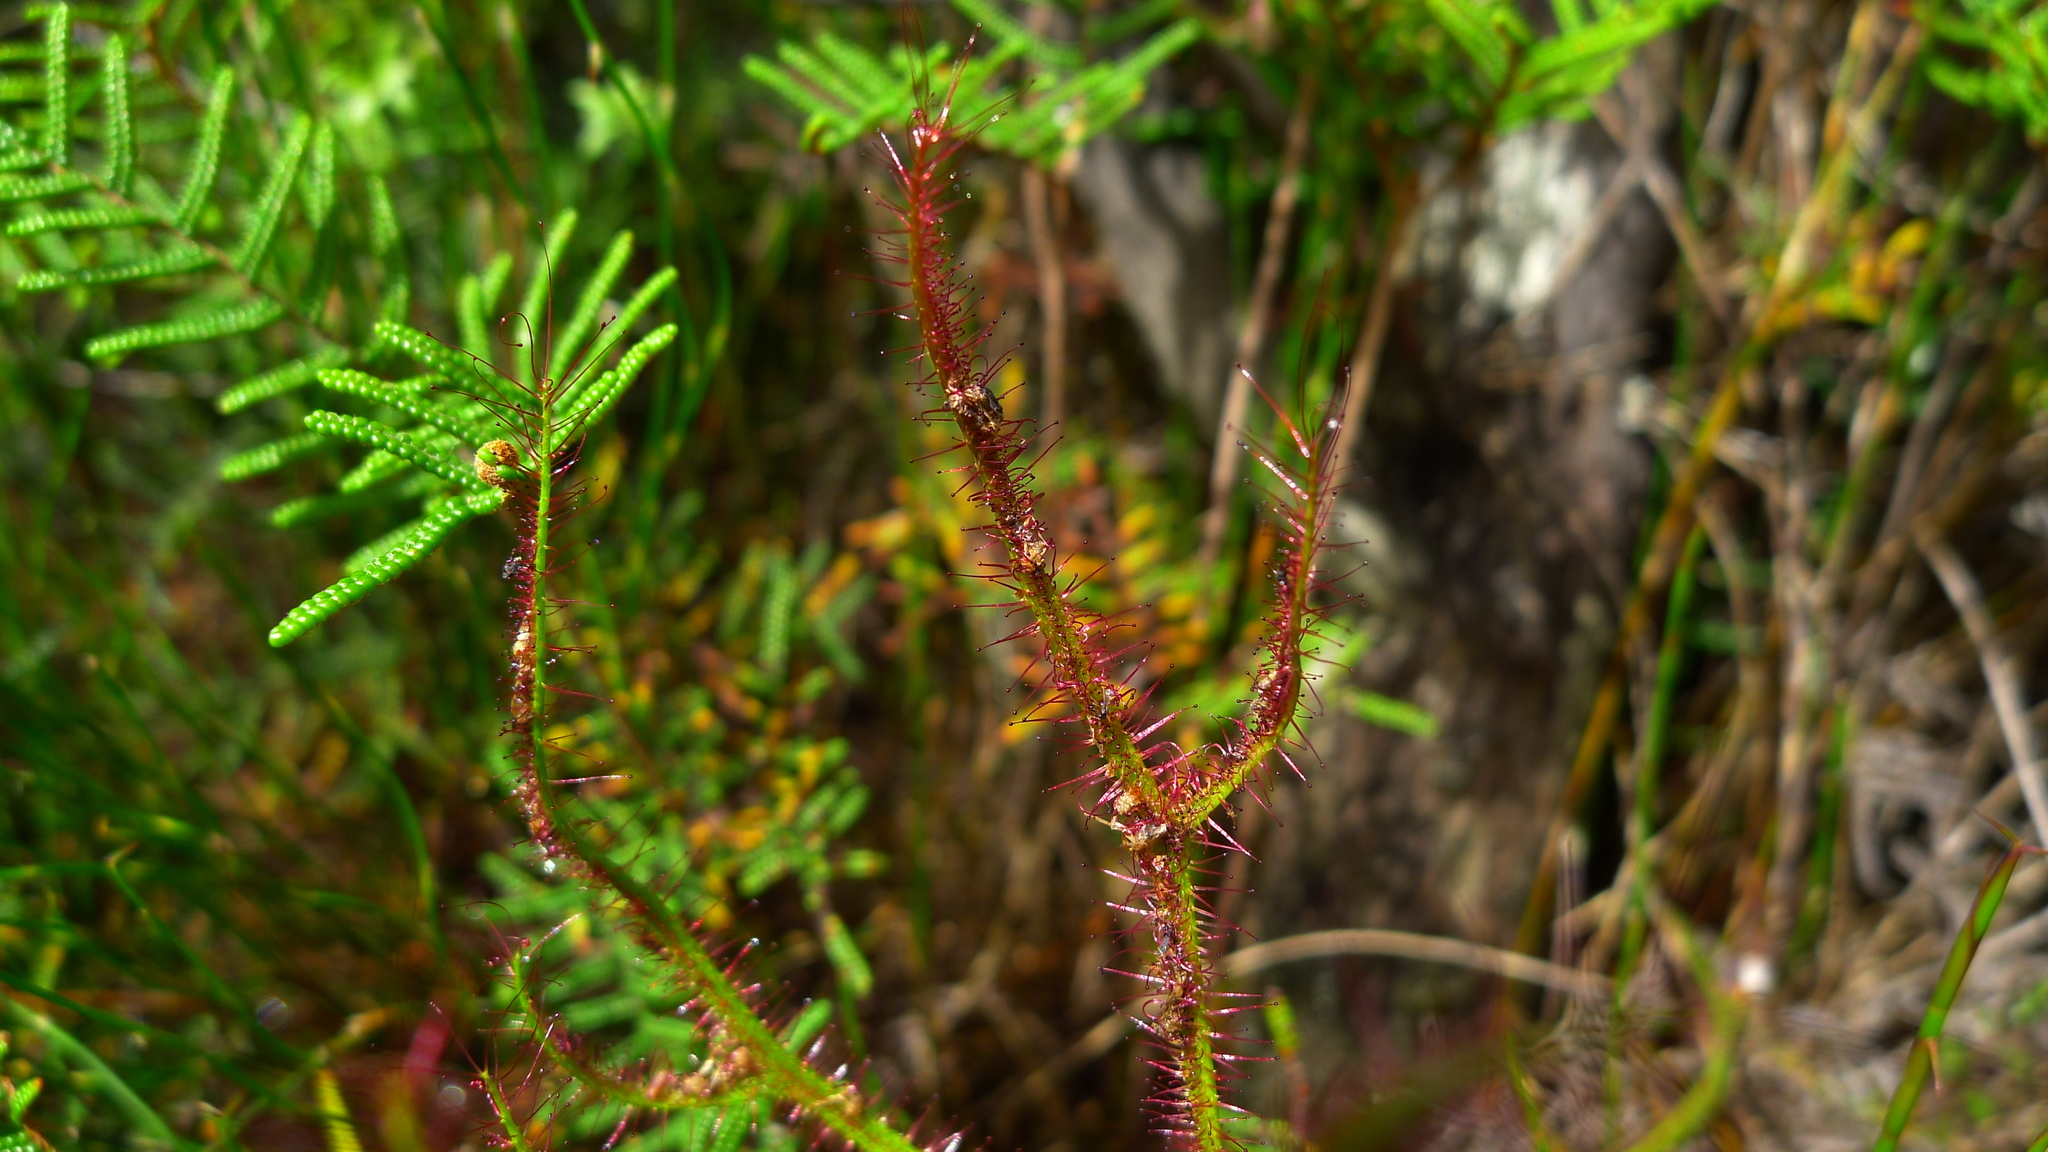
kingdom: Plantae
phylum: Tracheophyta
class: Magnoliopsida
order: Caryophyllales
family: Droseraceae
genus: Drosera
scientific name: Drosera binata
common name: Forked sundew
